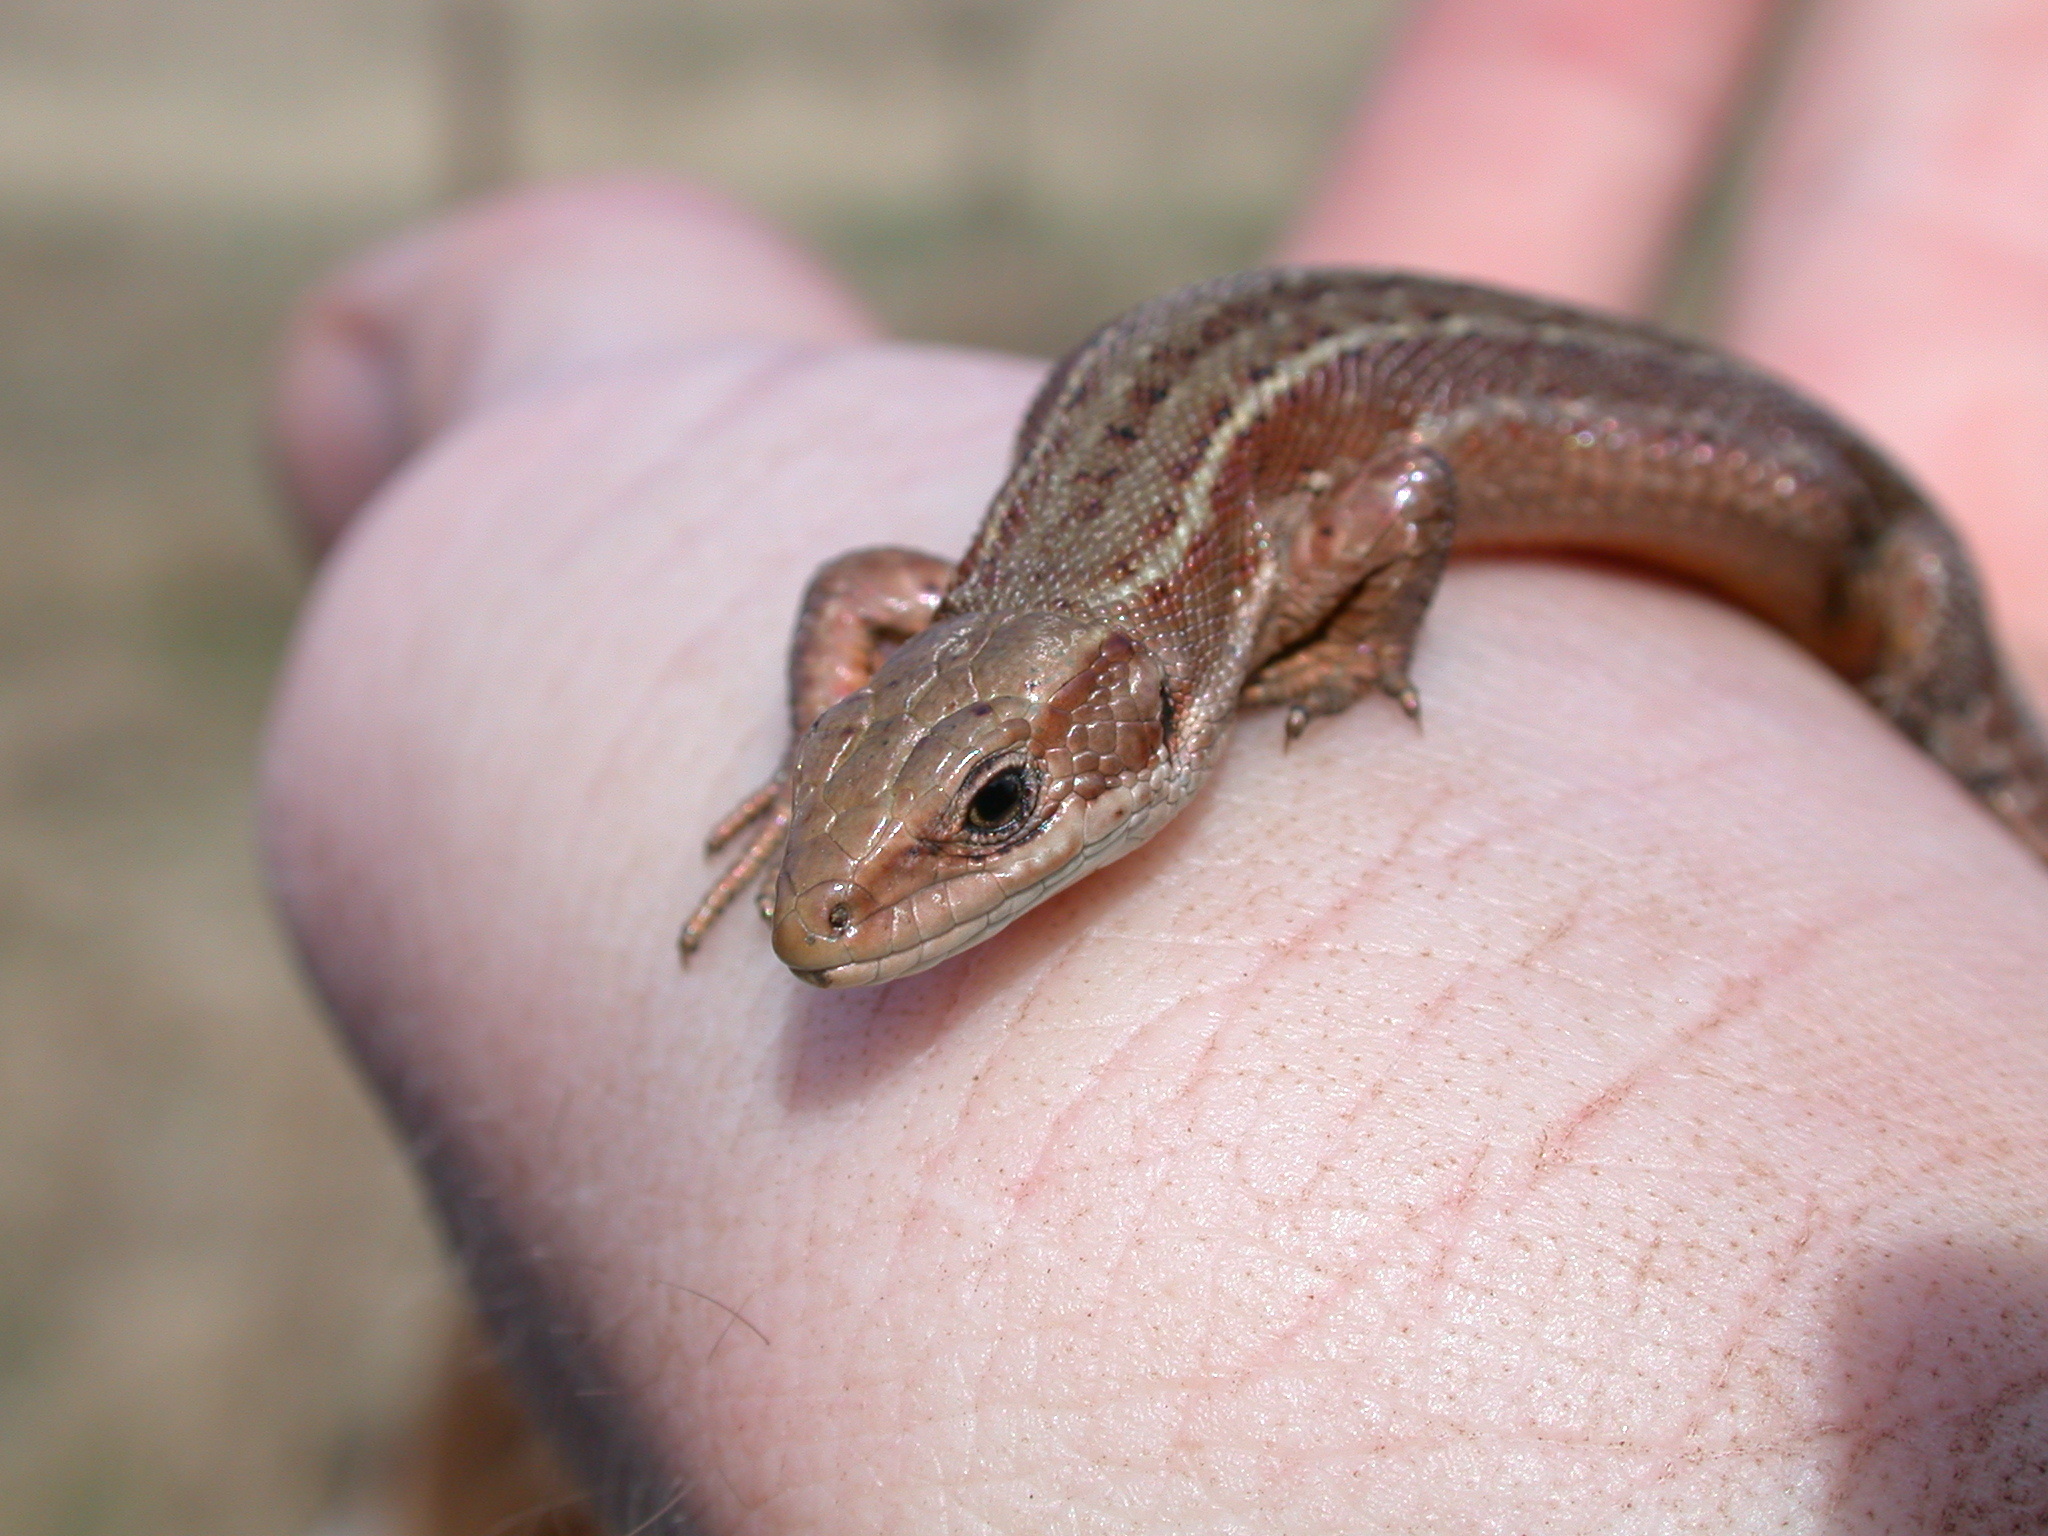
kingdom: Animalia
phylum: Chordata
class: Squamata
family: Lacertidae
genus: Zootoca
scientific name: Zootoca vivipara
